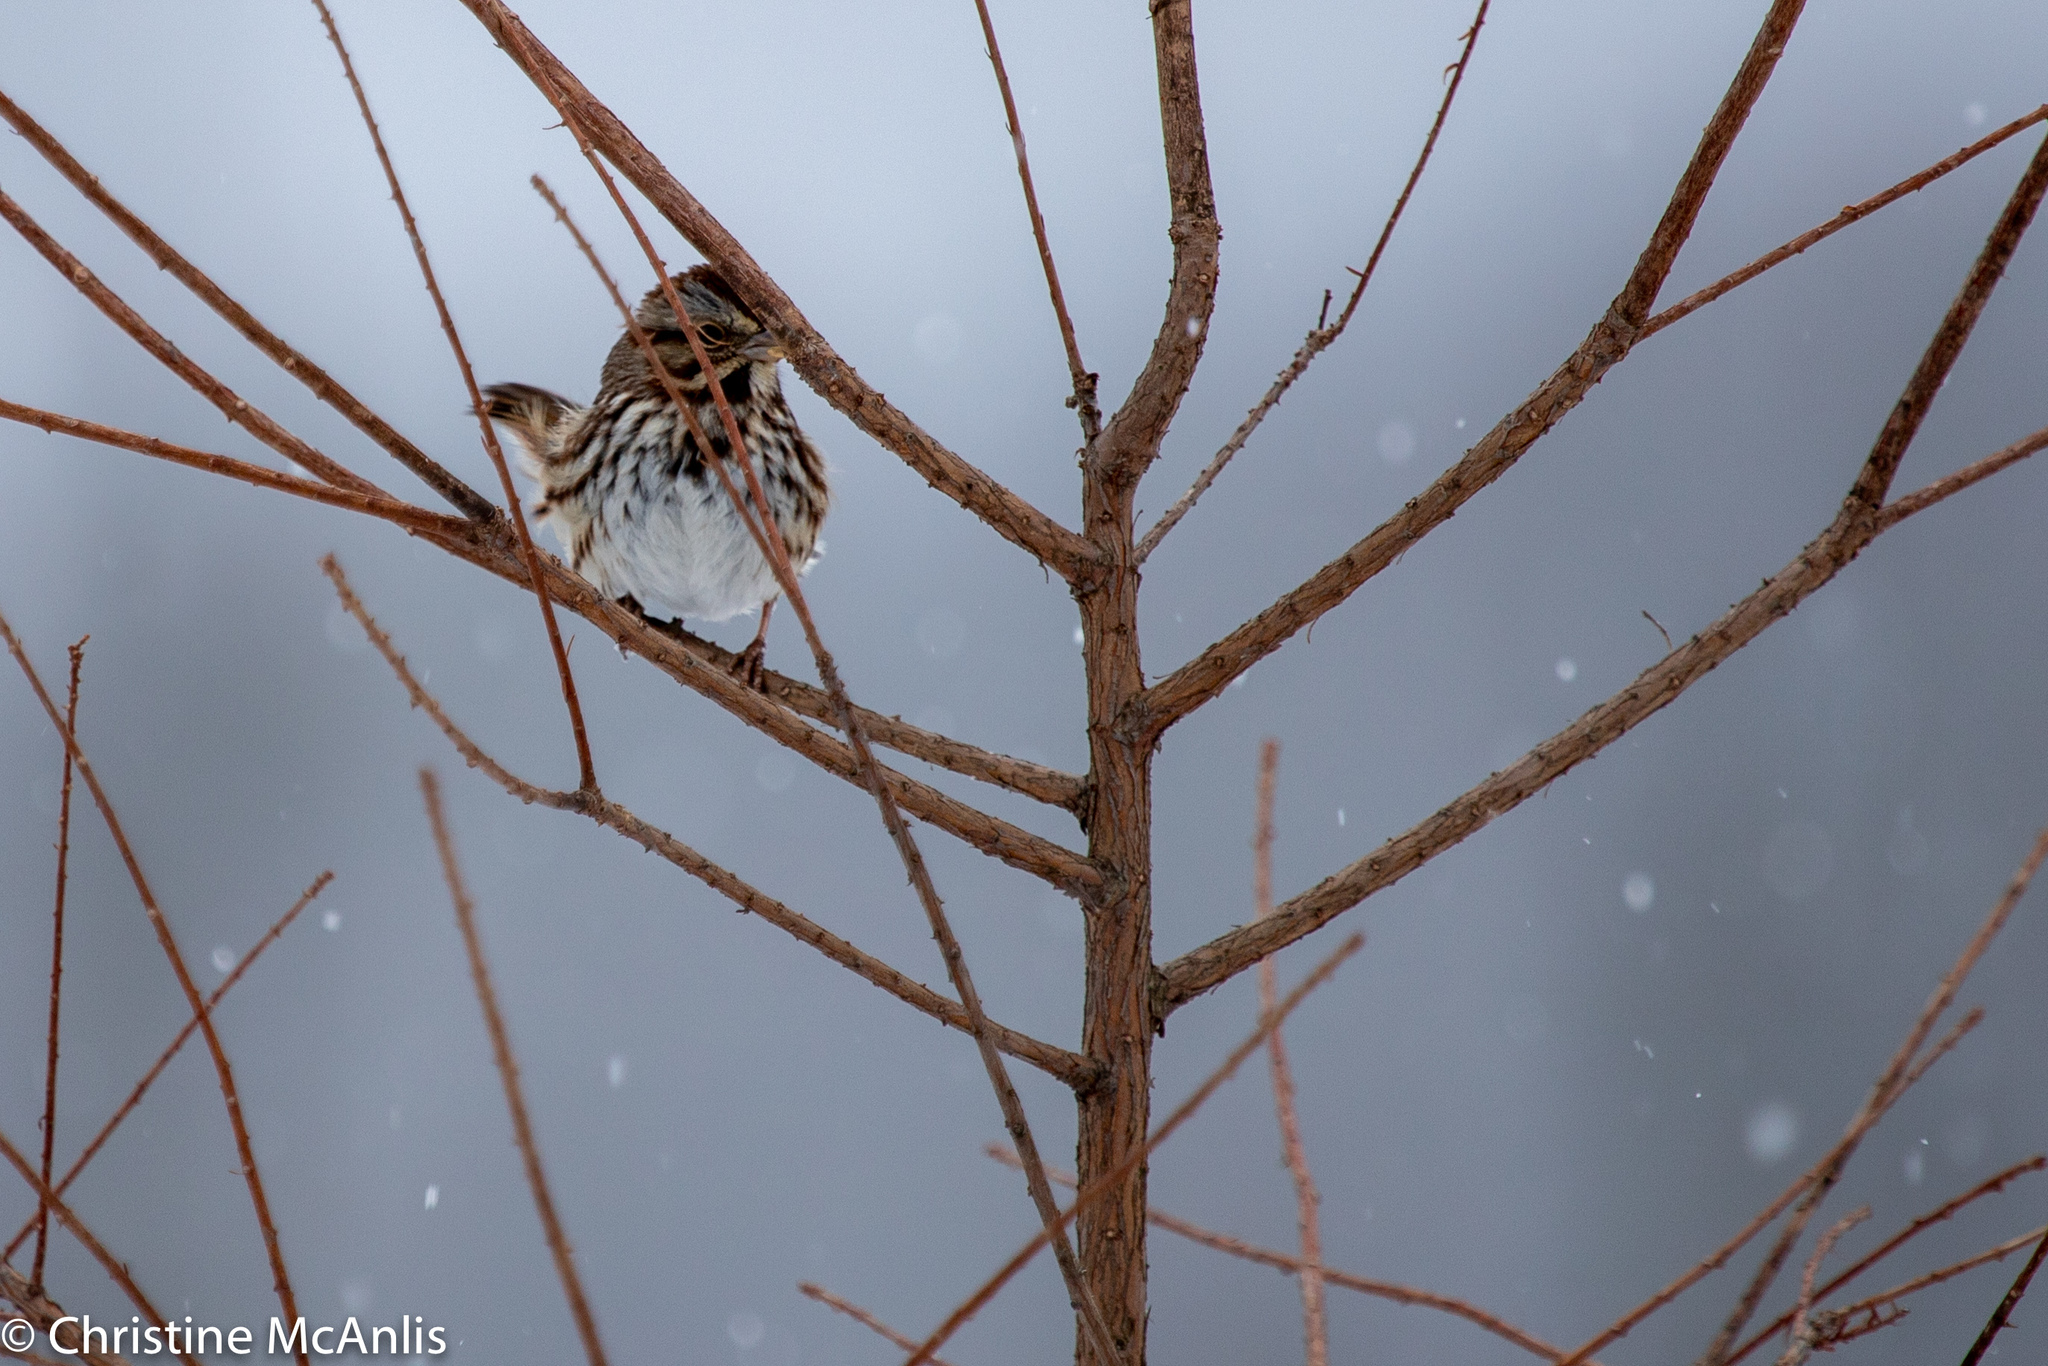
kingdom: Animalia
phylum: Chordata
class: Aves
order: Passeriformes
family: Passerellidae
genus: Melospiza
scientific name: Melospiza melodia
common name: Song sparrow
